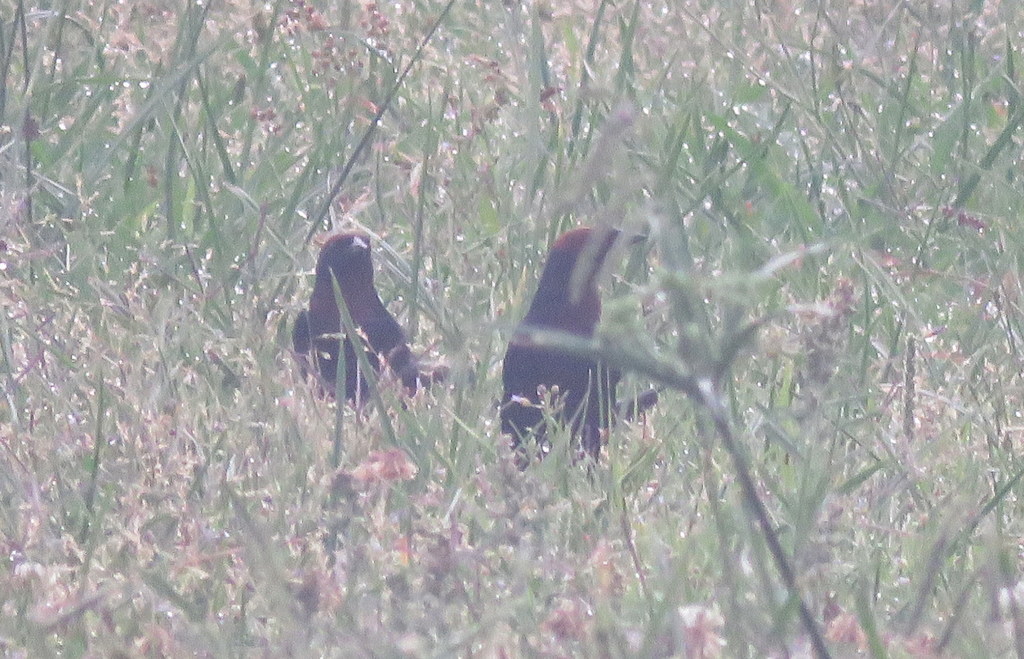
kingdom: Animalia
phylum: Chordata
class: Aves
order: Passeriformes
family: Icteridae
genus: Chrysomus
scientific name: Chrysomus ruficapillus
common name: Chestnut-capped blackbird
